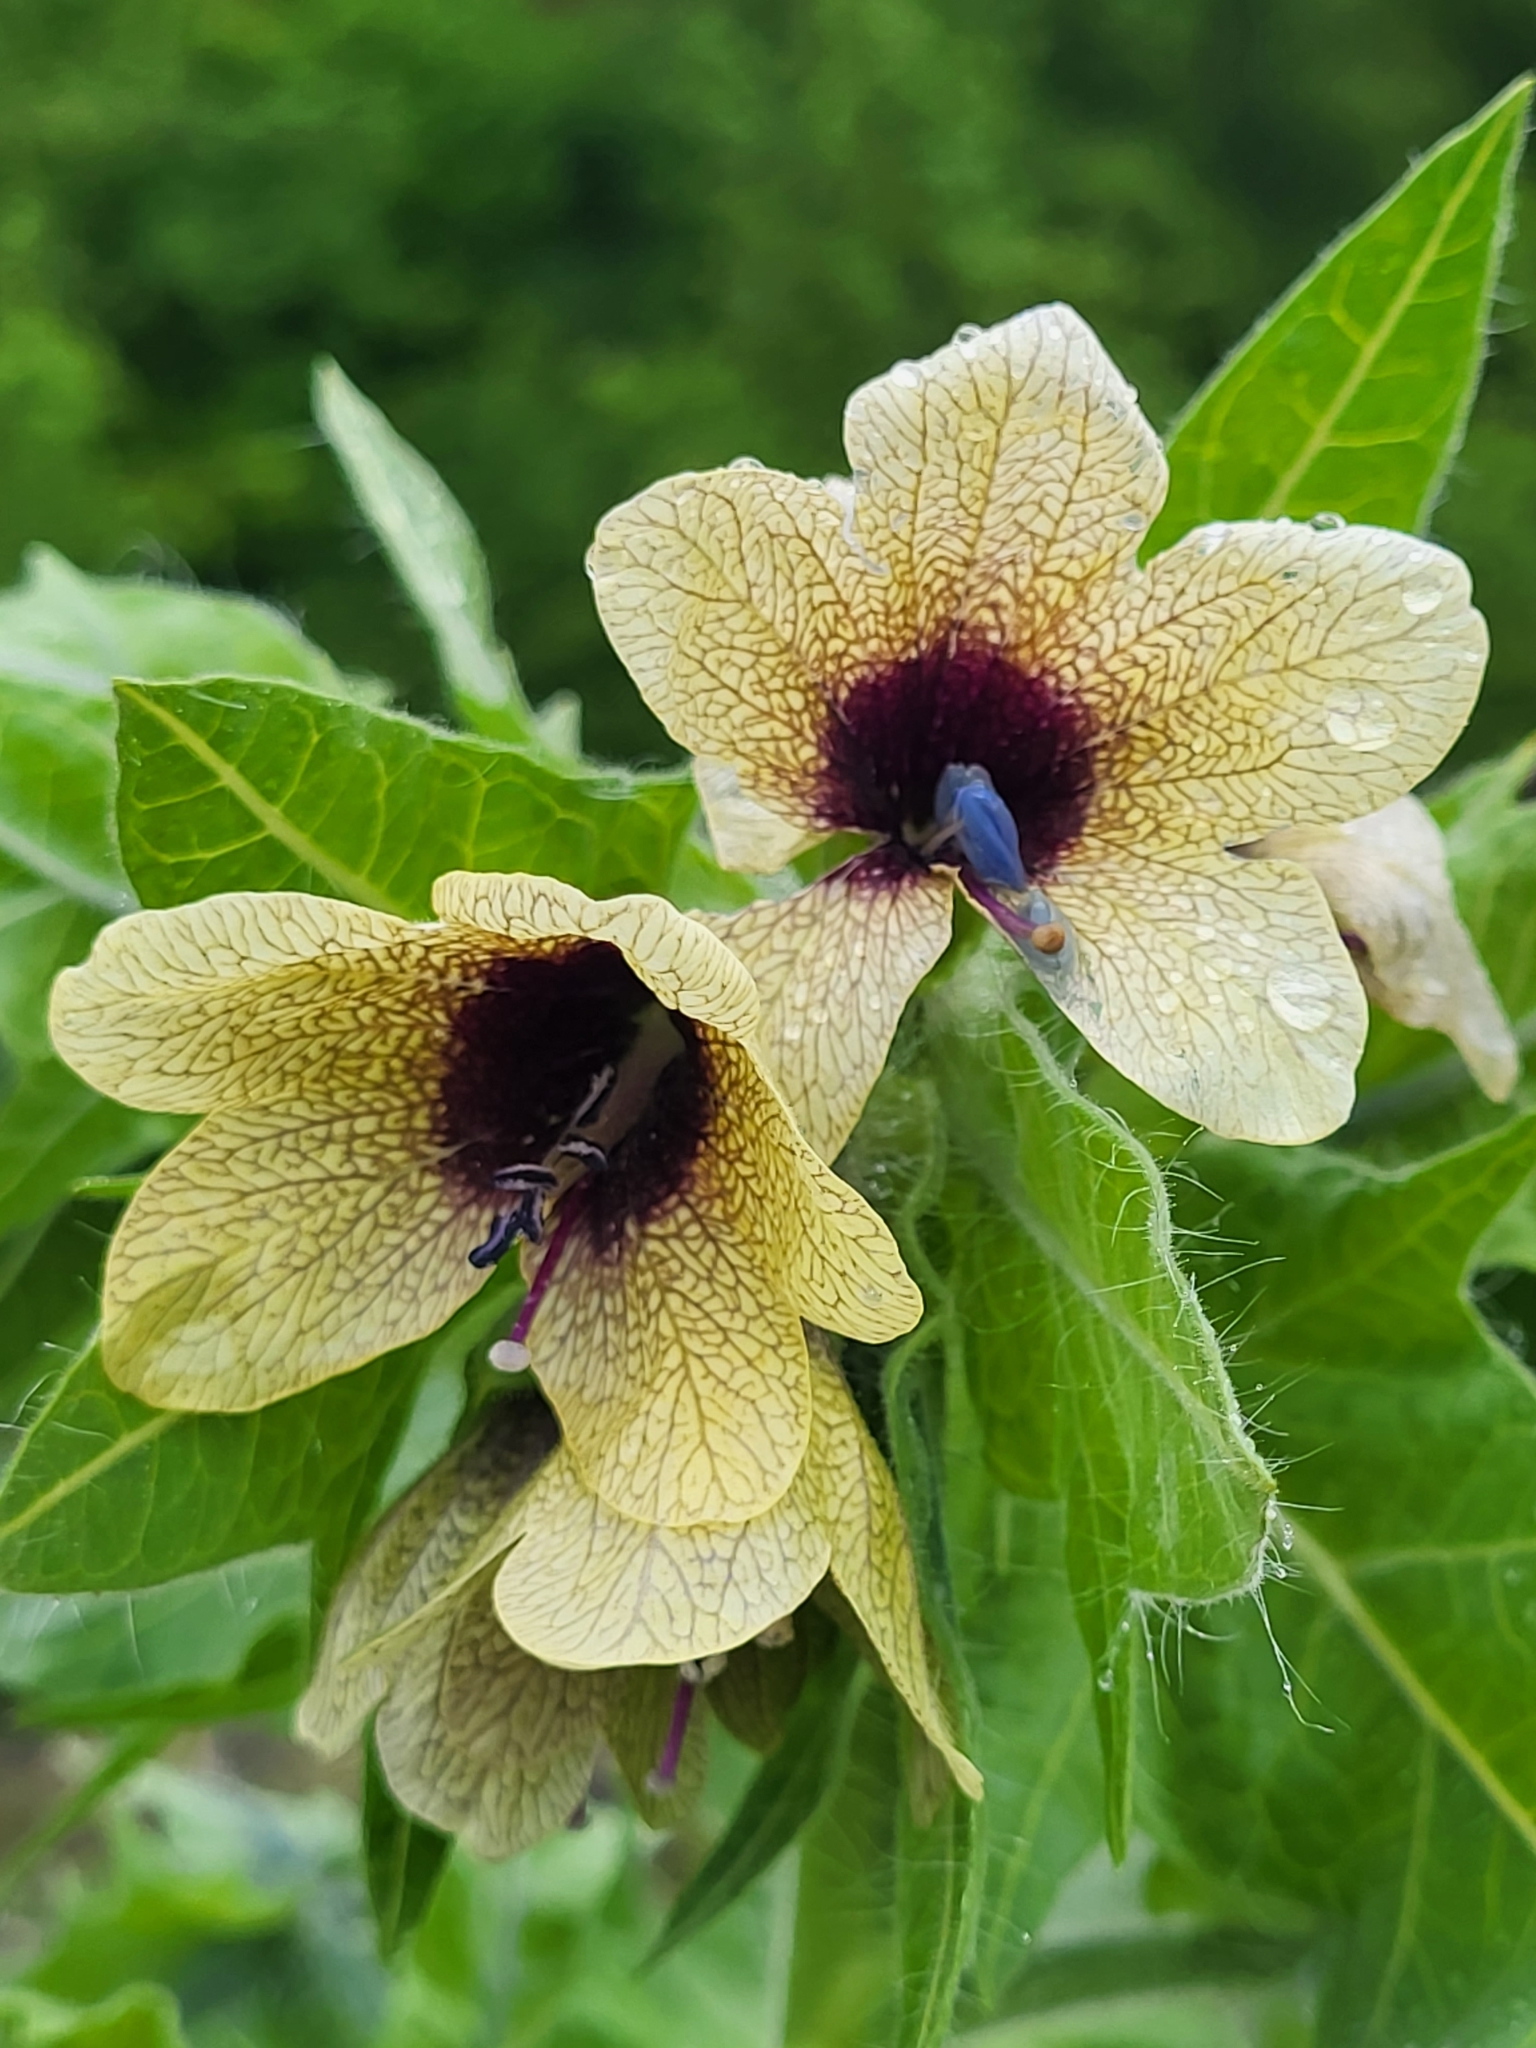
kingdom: Plantae
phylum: Tracheophyta
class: Magnoliopsida
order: Solanales
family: Solanaceae
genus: Hyoscyamus
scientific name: Hyoscyamus niger
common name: Henbane
